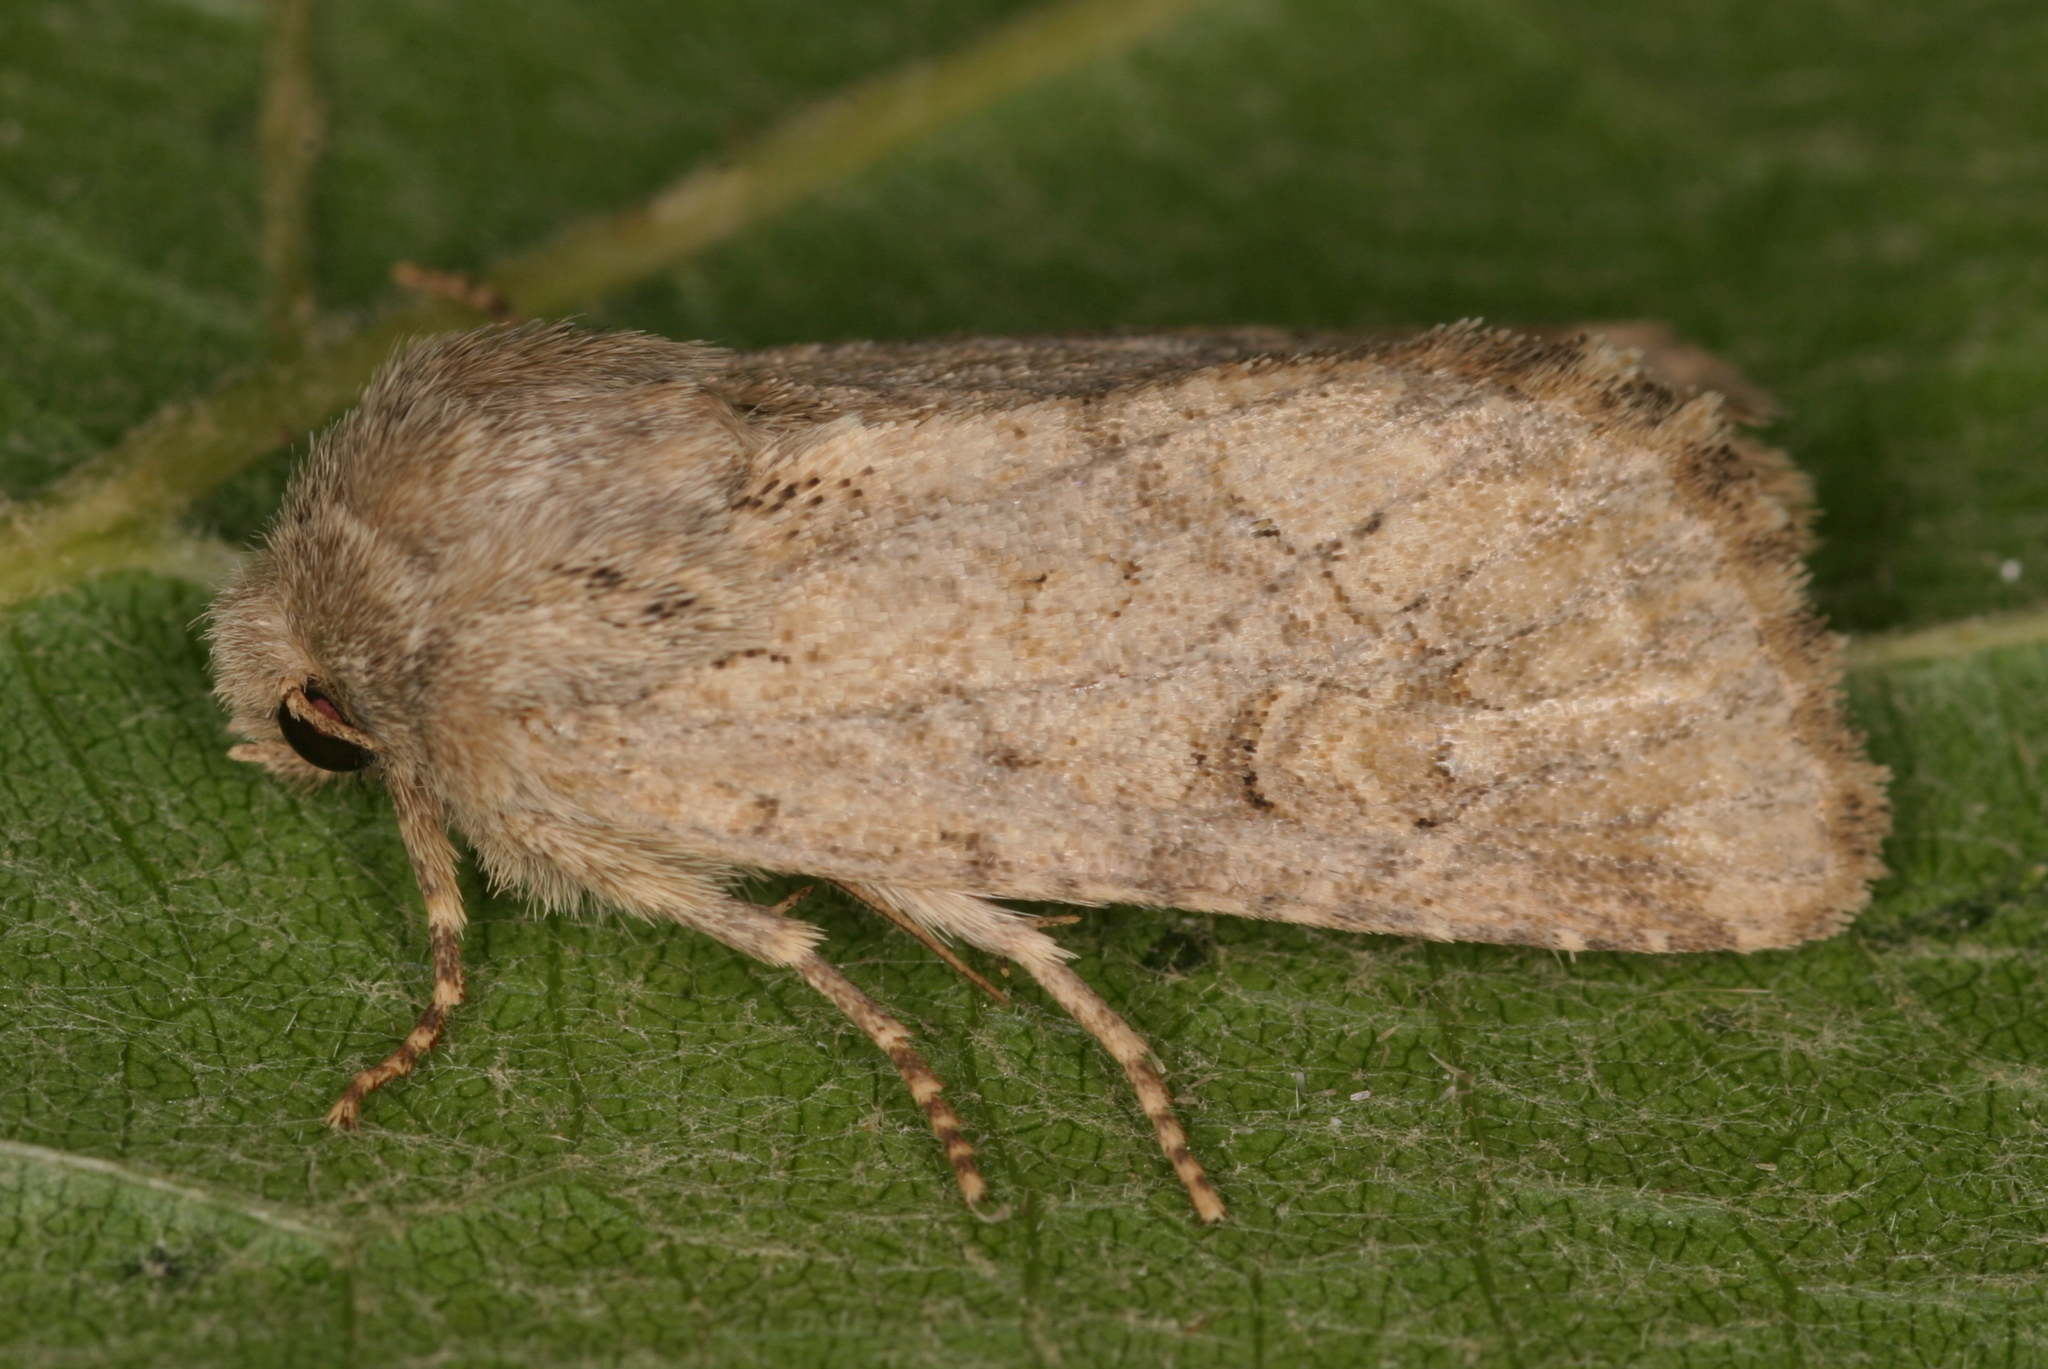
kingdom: Animalia
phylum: Arthropoda
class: Insecta
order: Lepidoptera
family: Noctuidae
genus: Luperina
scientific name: Luperina testacea
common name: Flounced rustic
